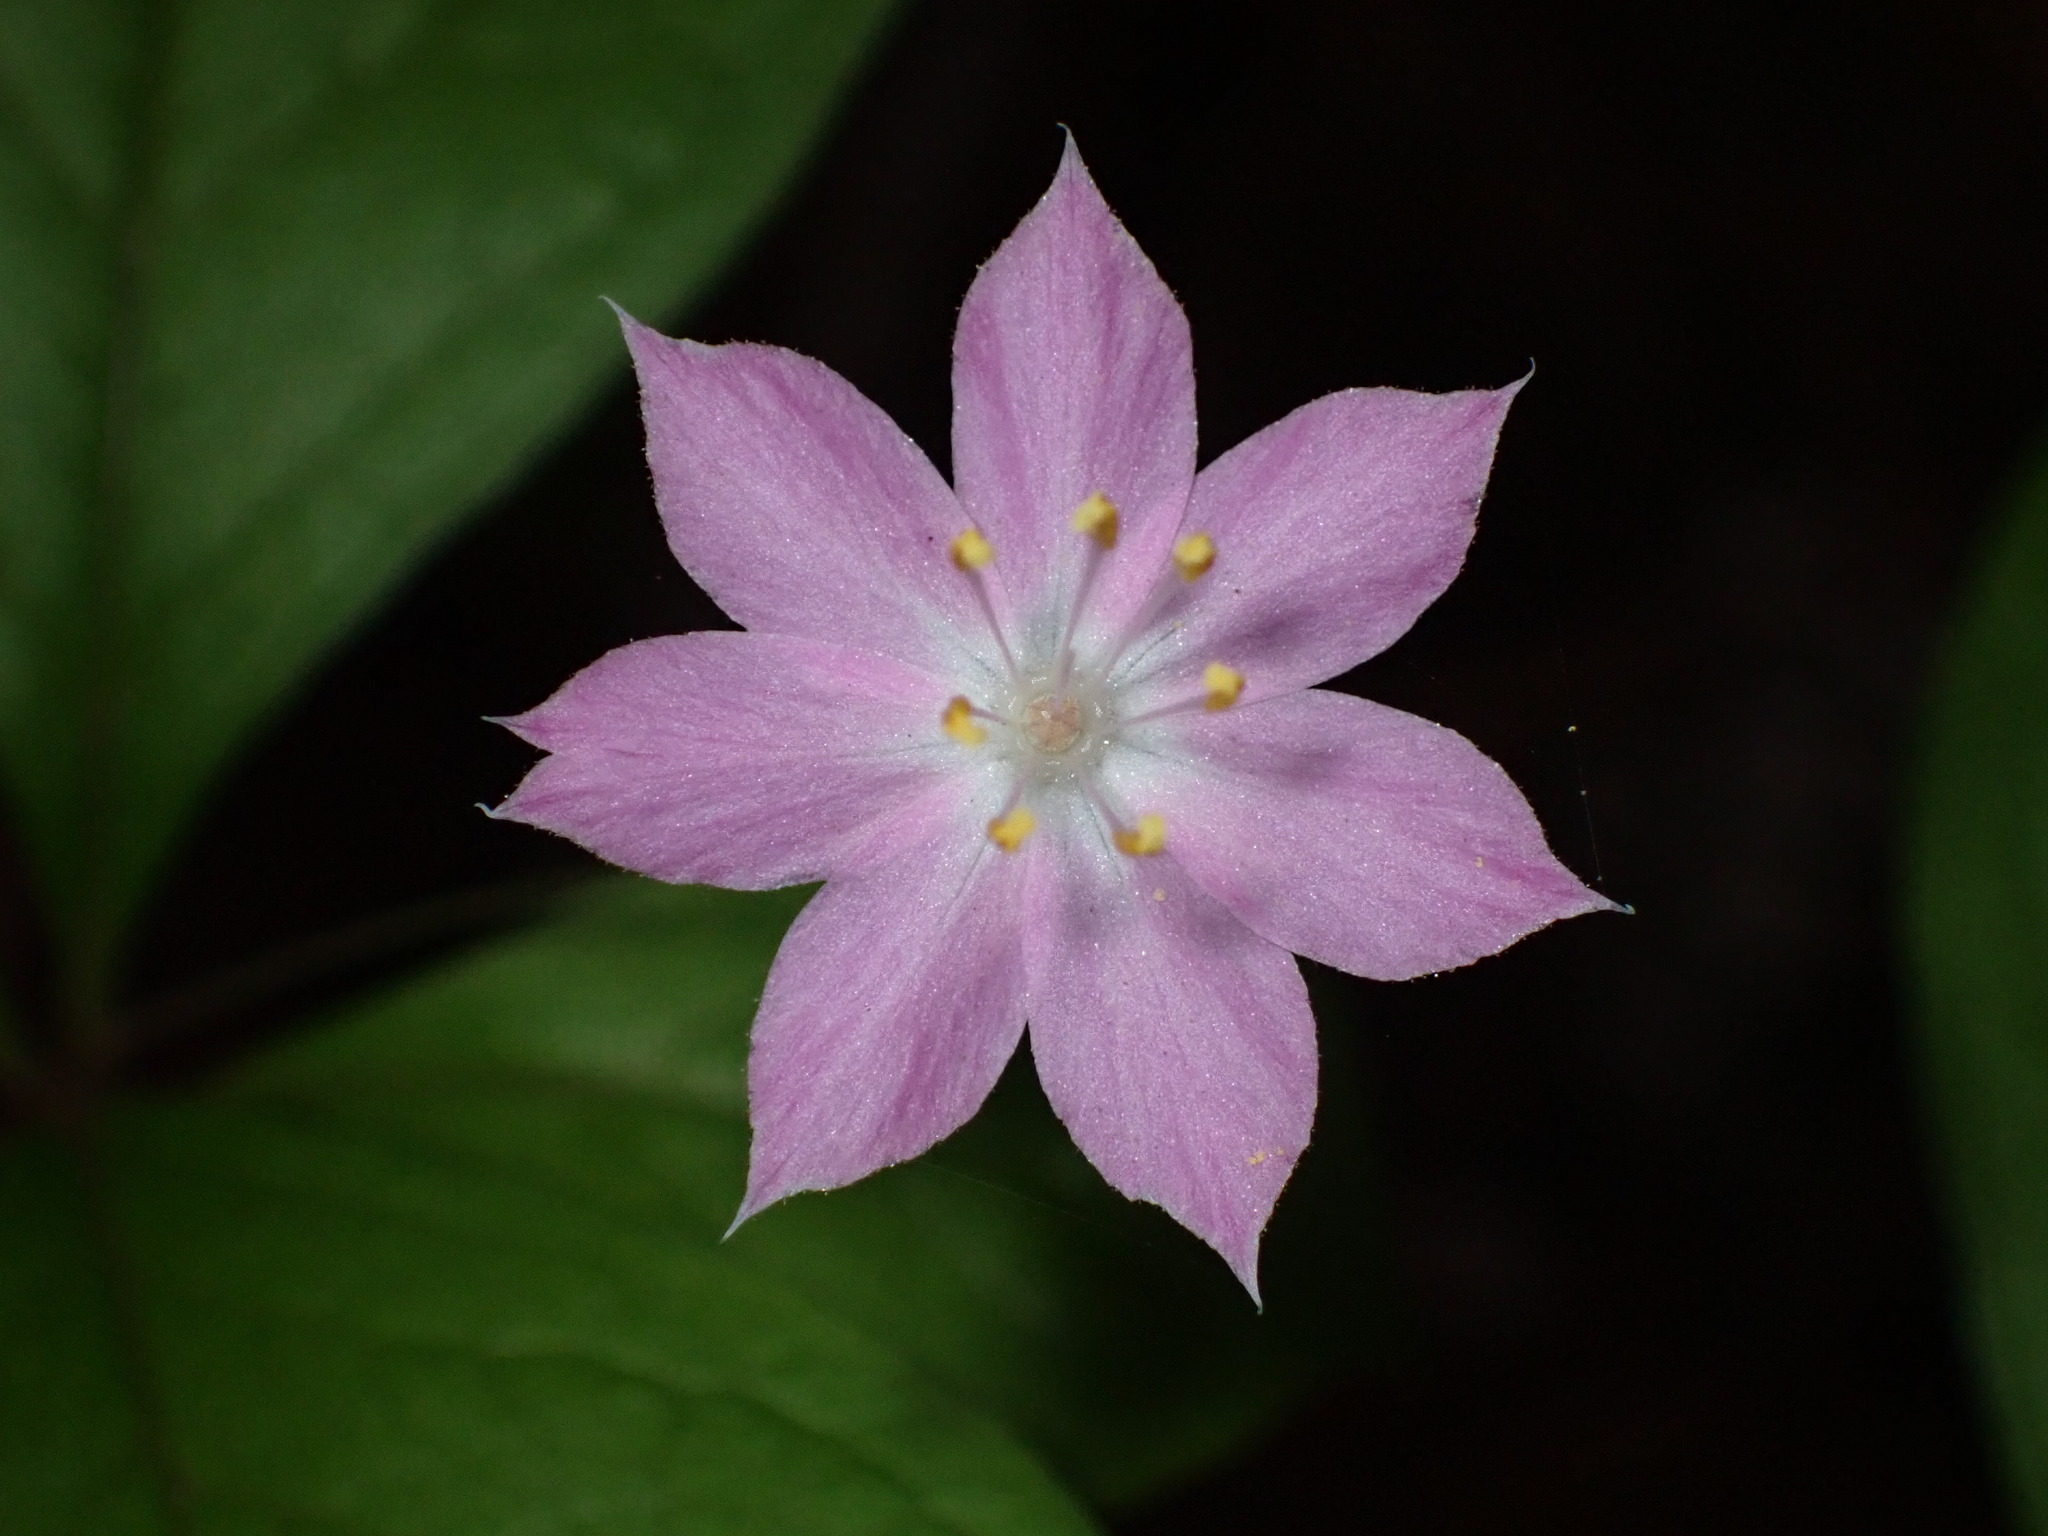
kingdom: Plantae
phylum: Tracheophyta
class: Magnoliopsida
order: Ericales
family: Primulaceae
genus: Lysimachia
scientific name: Lysimachia latifolia
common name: Pacific starflower
